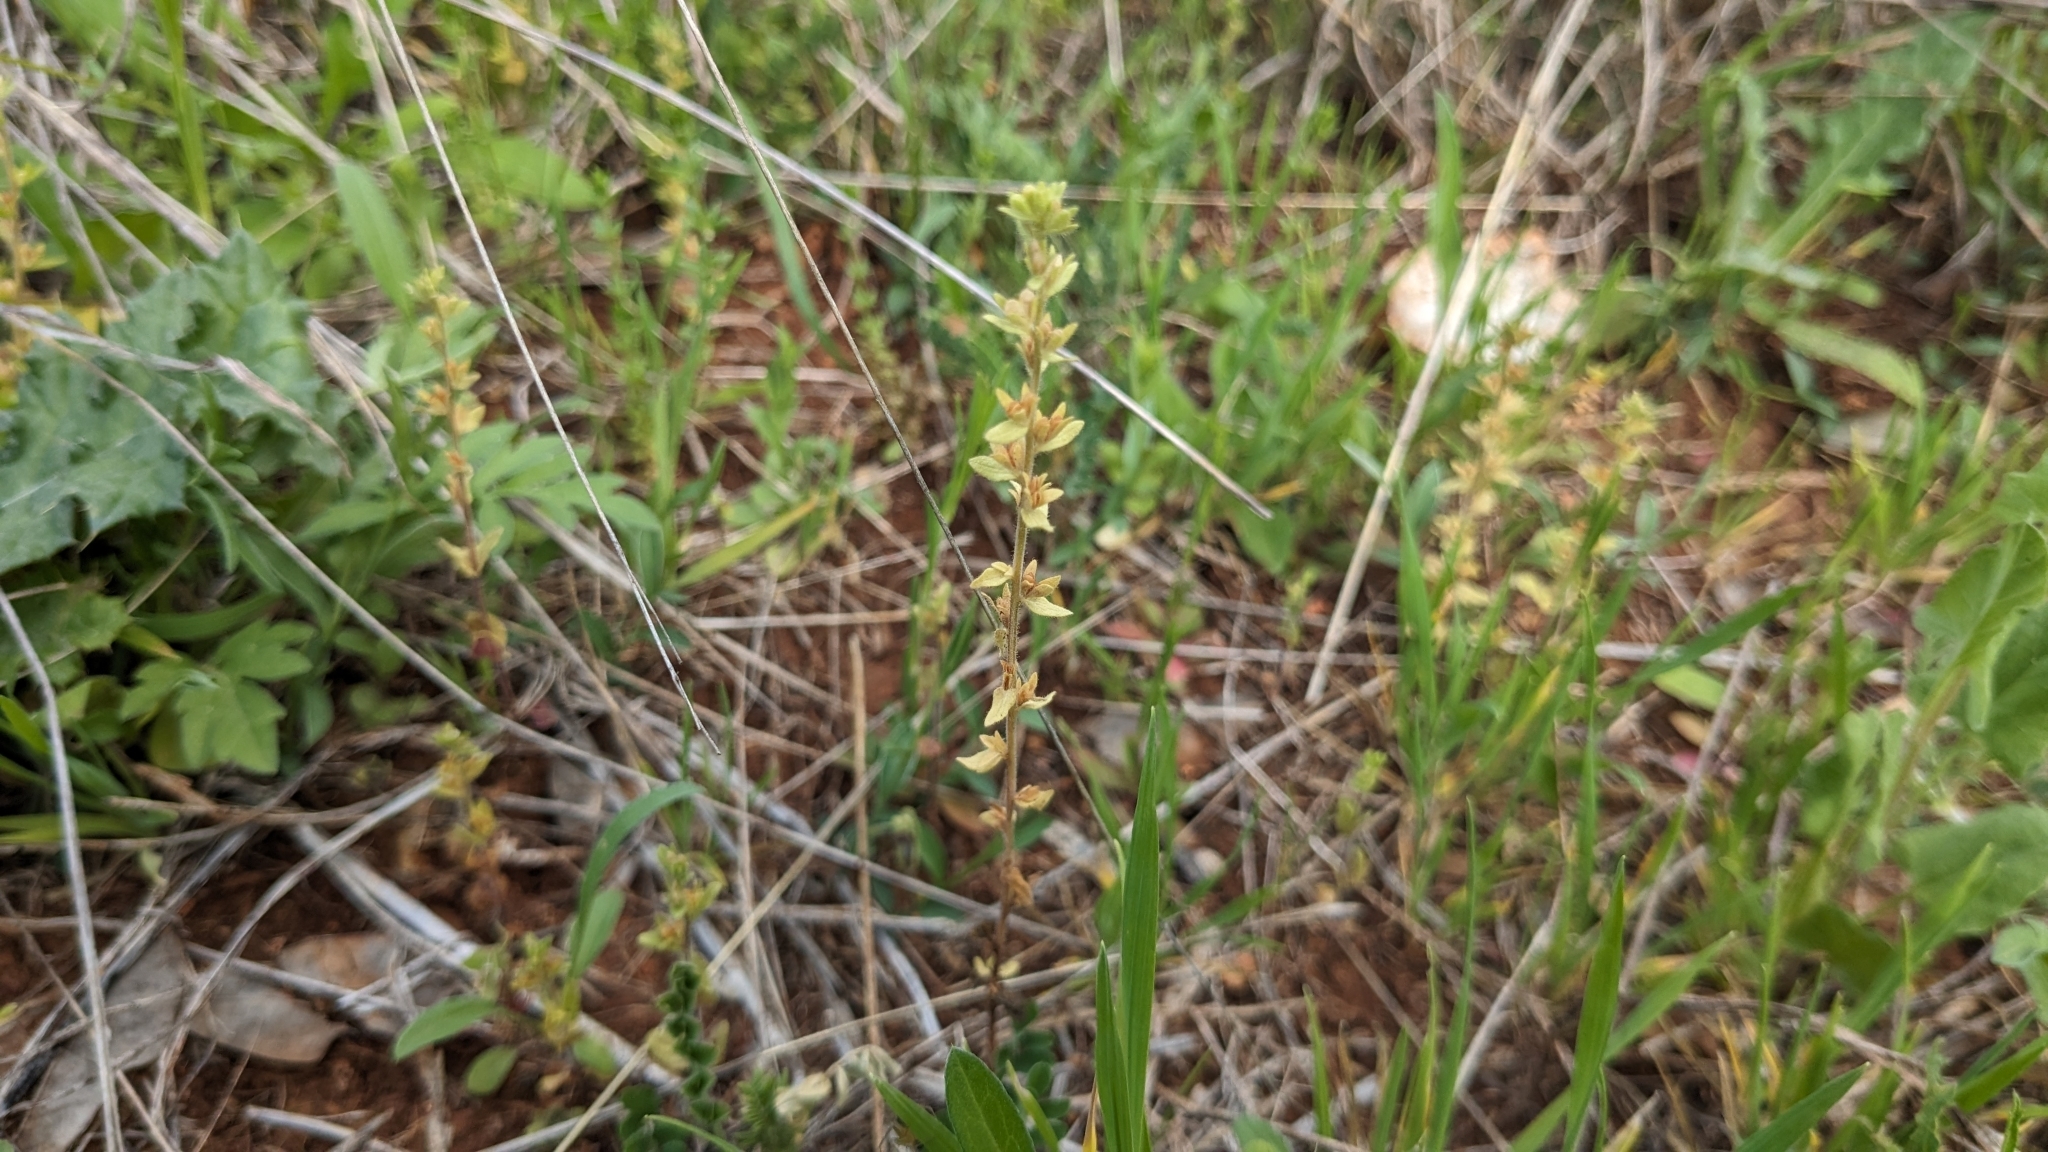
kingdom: Plantae
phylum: Tracheophyta
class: Magnoliopsida
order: Lamiales
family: Plantaginaceae
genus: Veronica
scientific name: Veronica arvensis
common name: Corn speedwell
